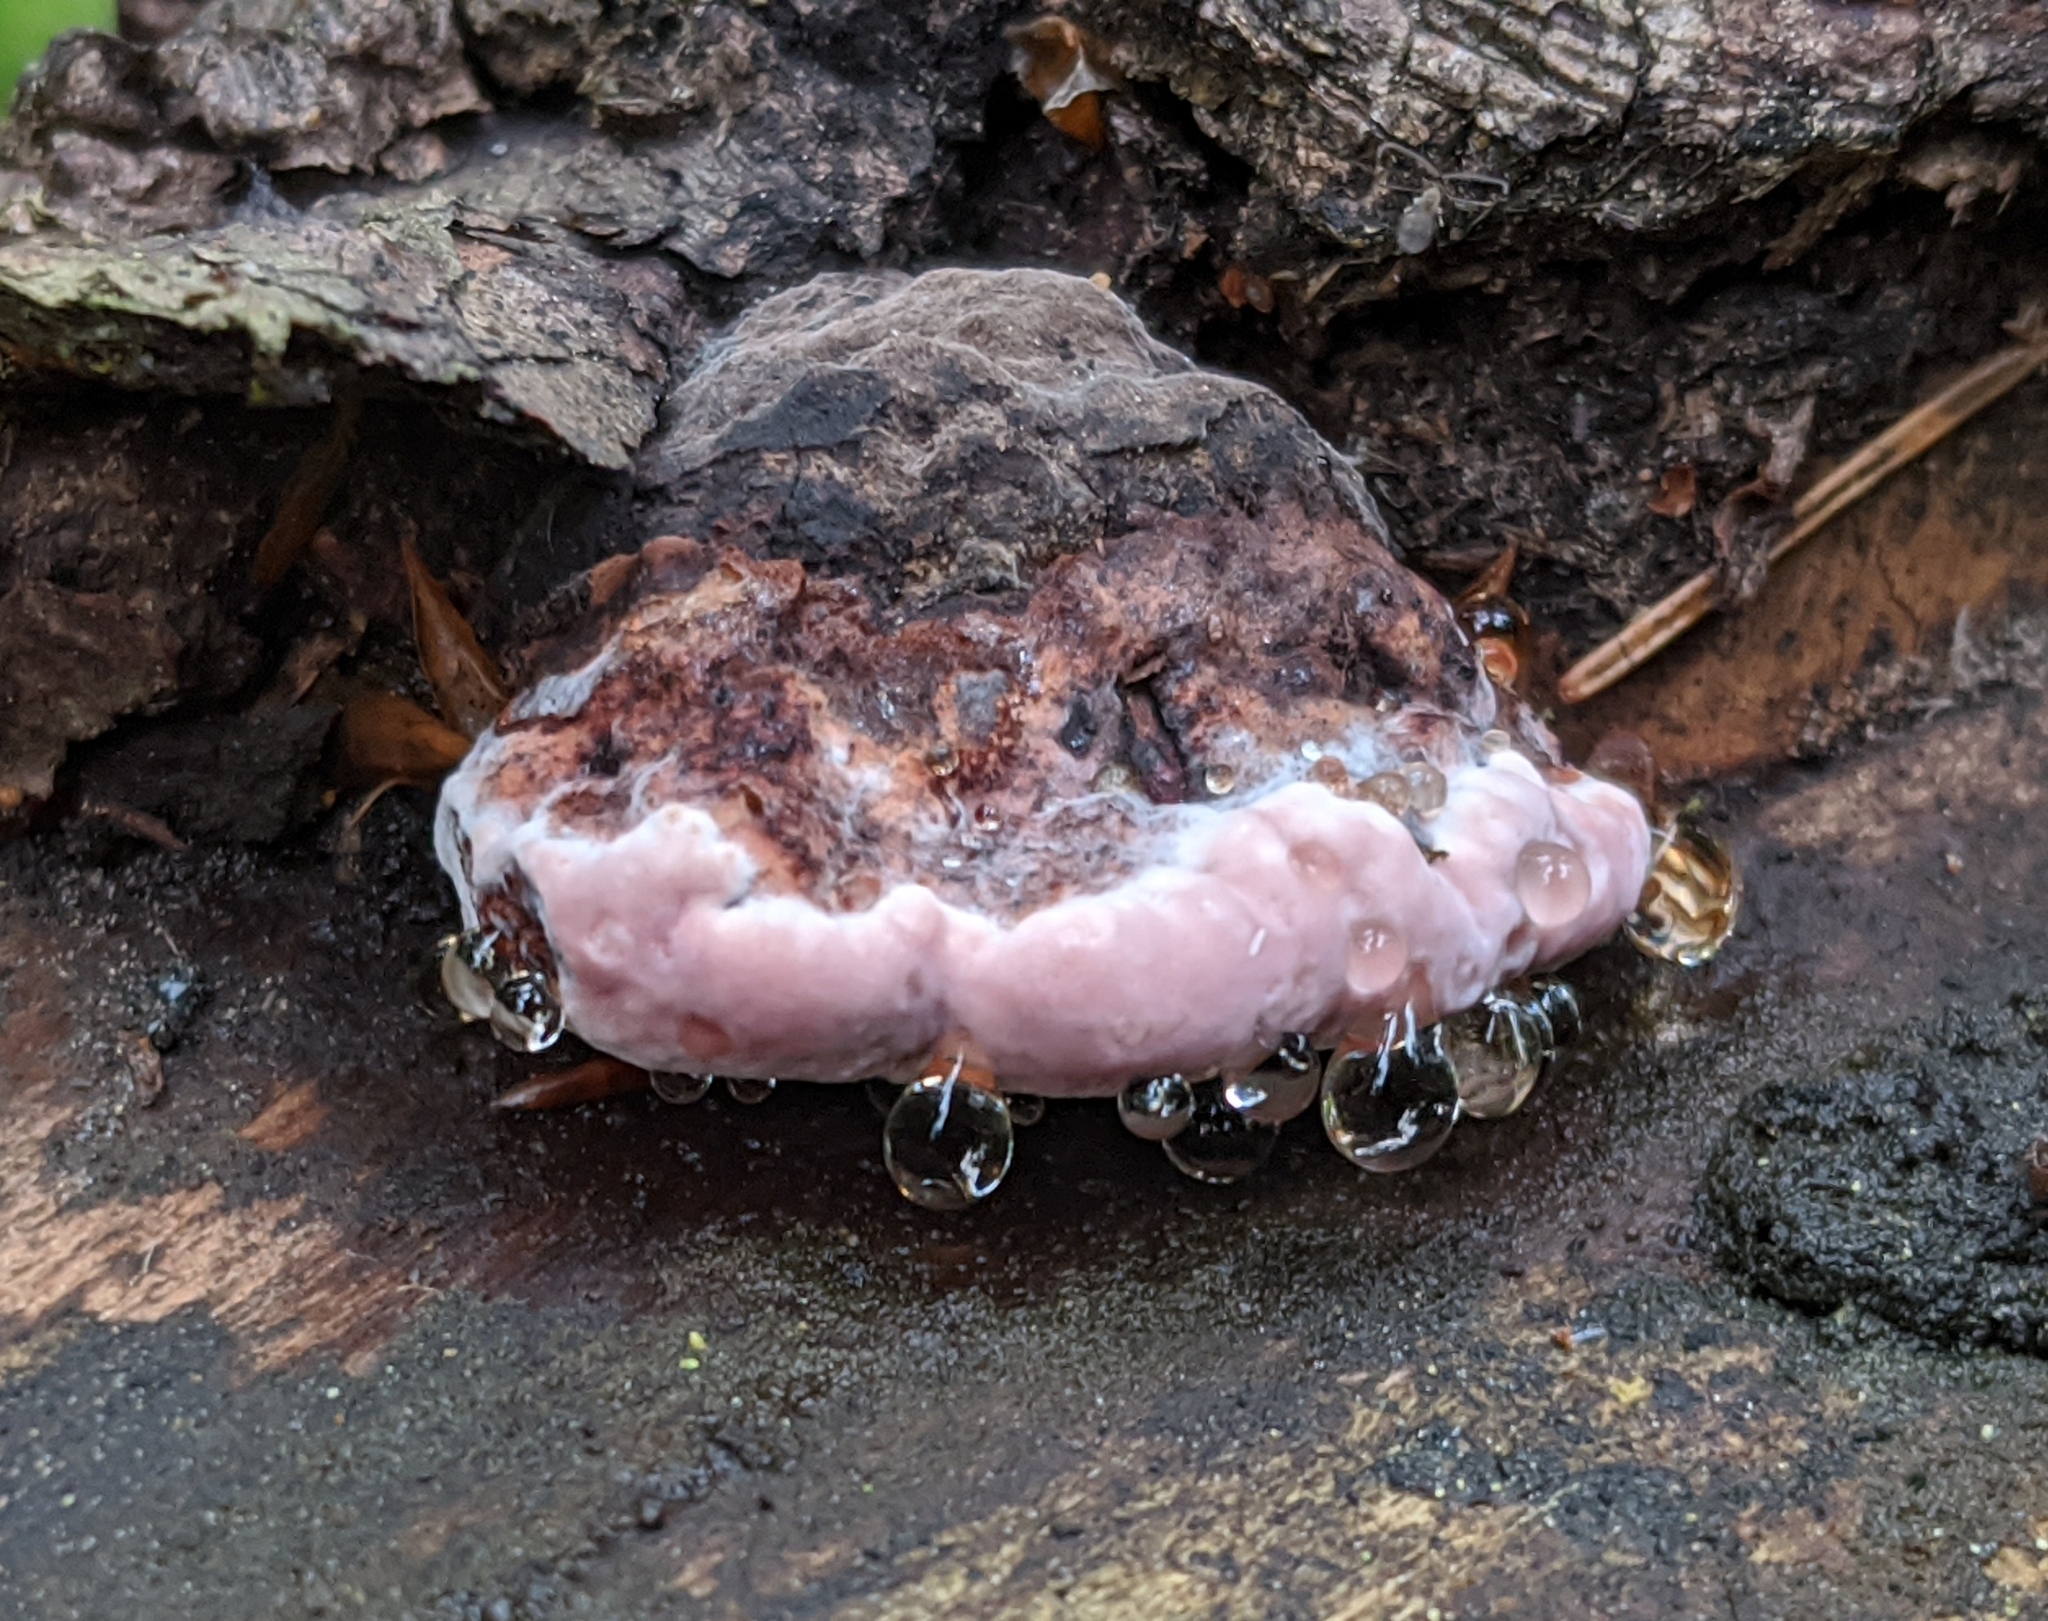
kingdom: Fungi
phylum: Basidiomycota
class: Agaricomycetes
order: Polyporales
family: Fomitopsidaceae
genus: Rhodofomes
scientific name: Rhodofomes roseus
